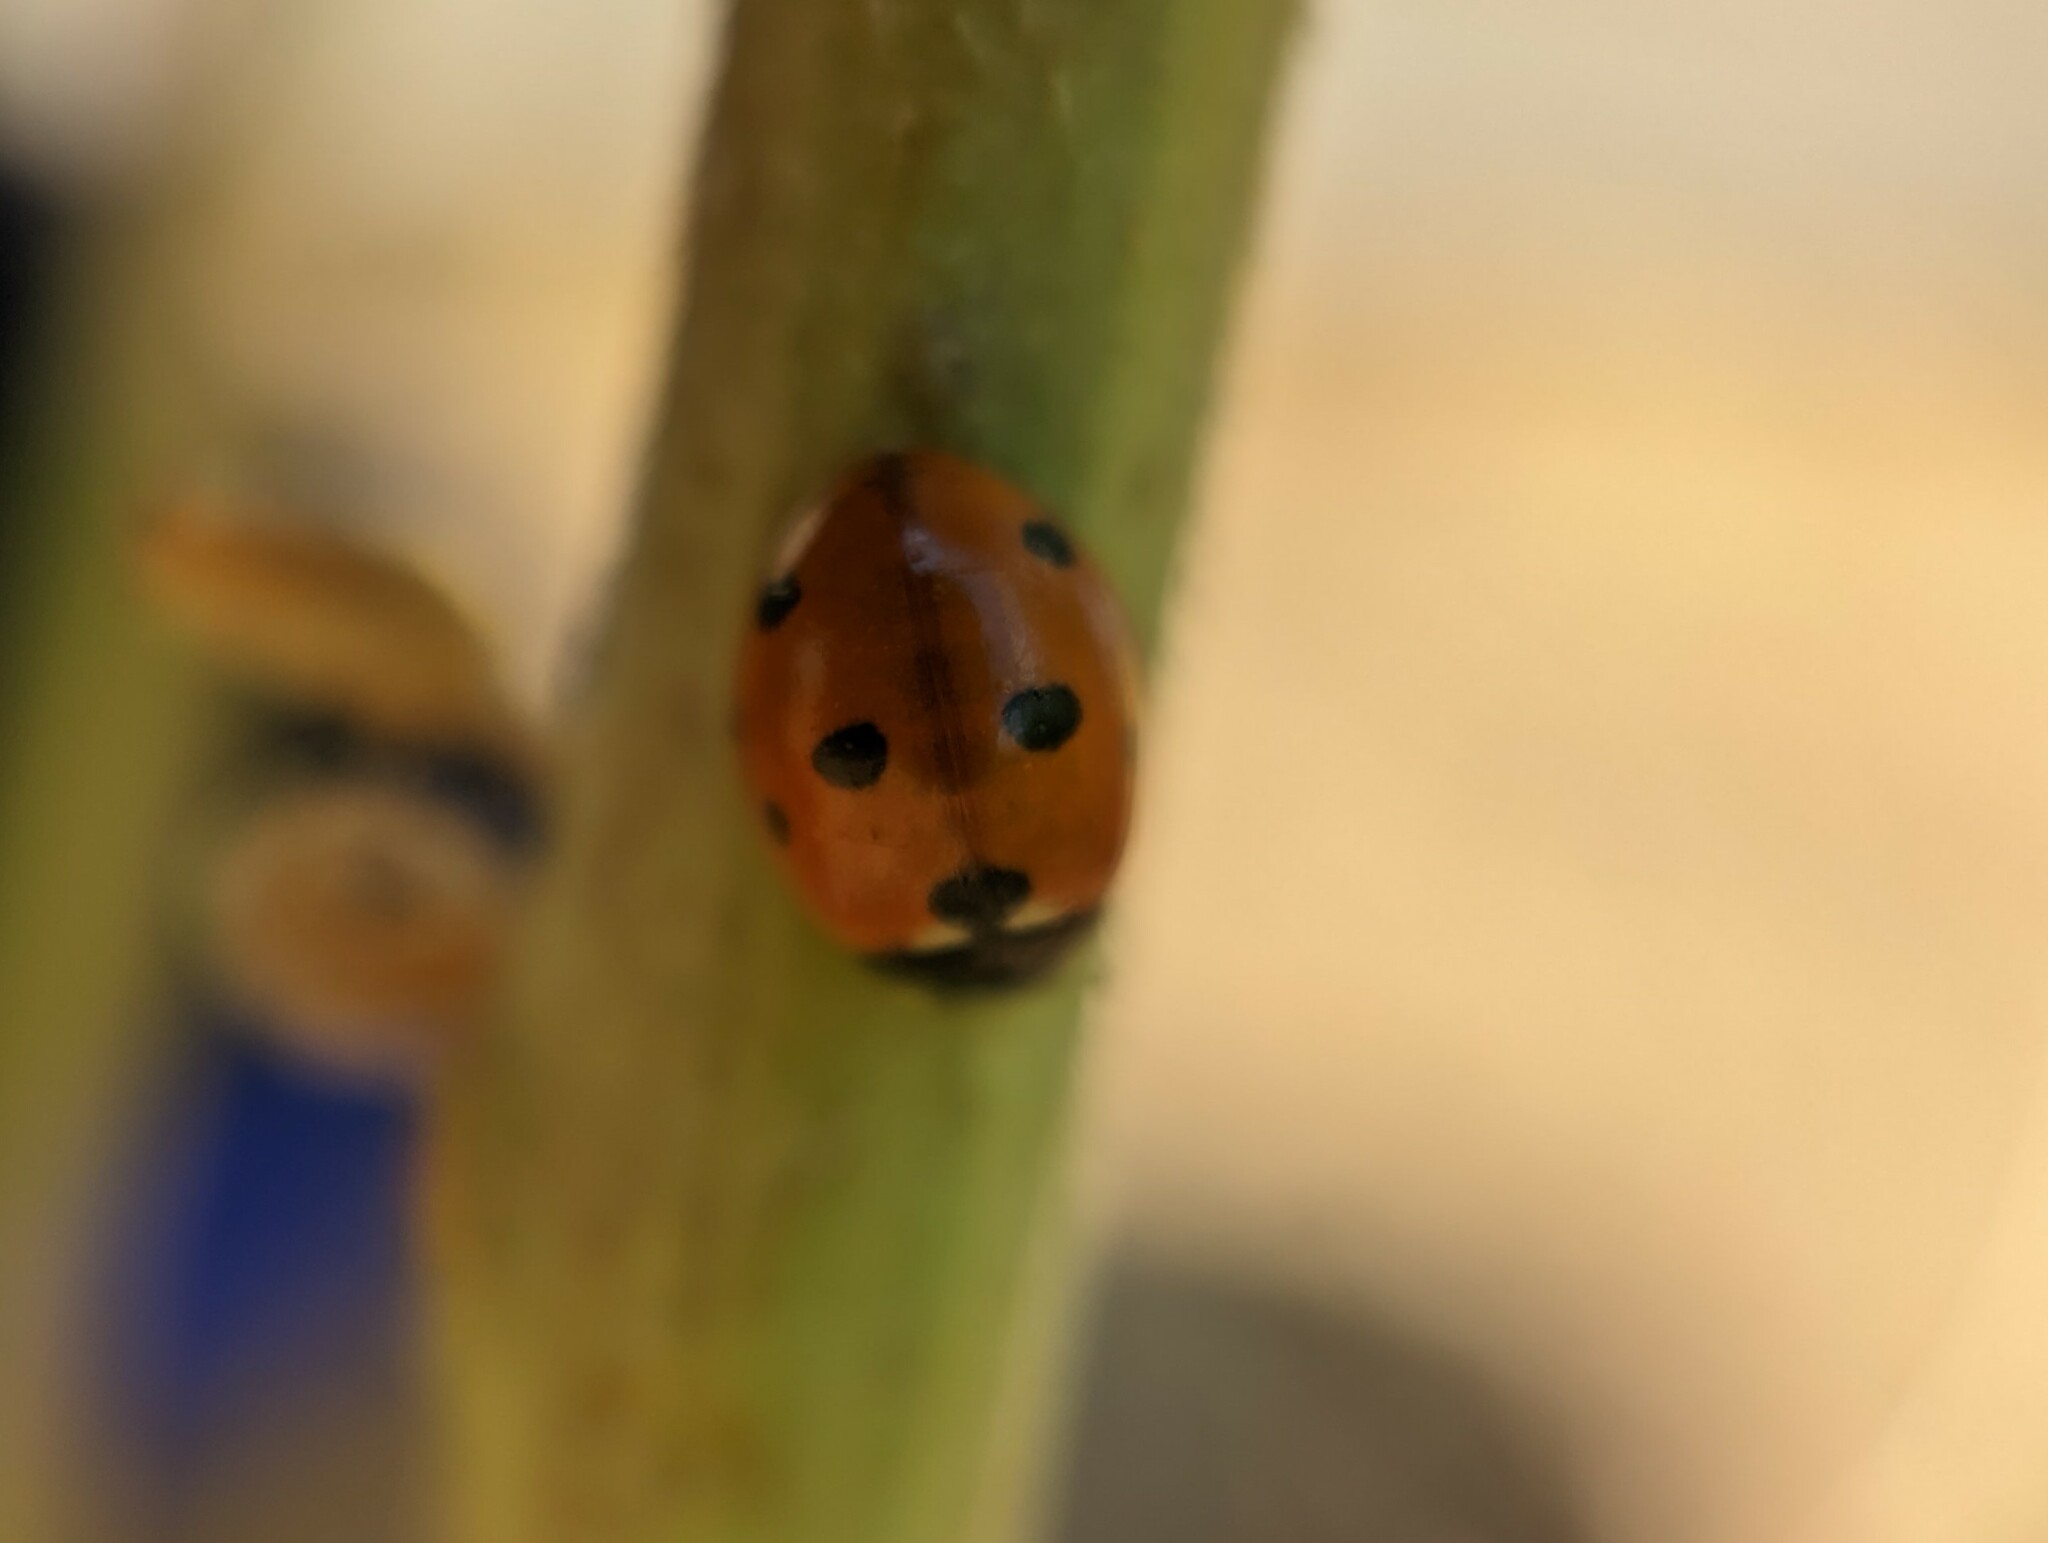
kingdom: Animalia
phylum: Arthropoda
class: Insecta
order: Coleoptera
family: Coccinellidae
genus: Coccinella
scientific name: Coccinella septempunctata
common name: Sevenspotted lady beetle
